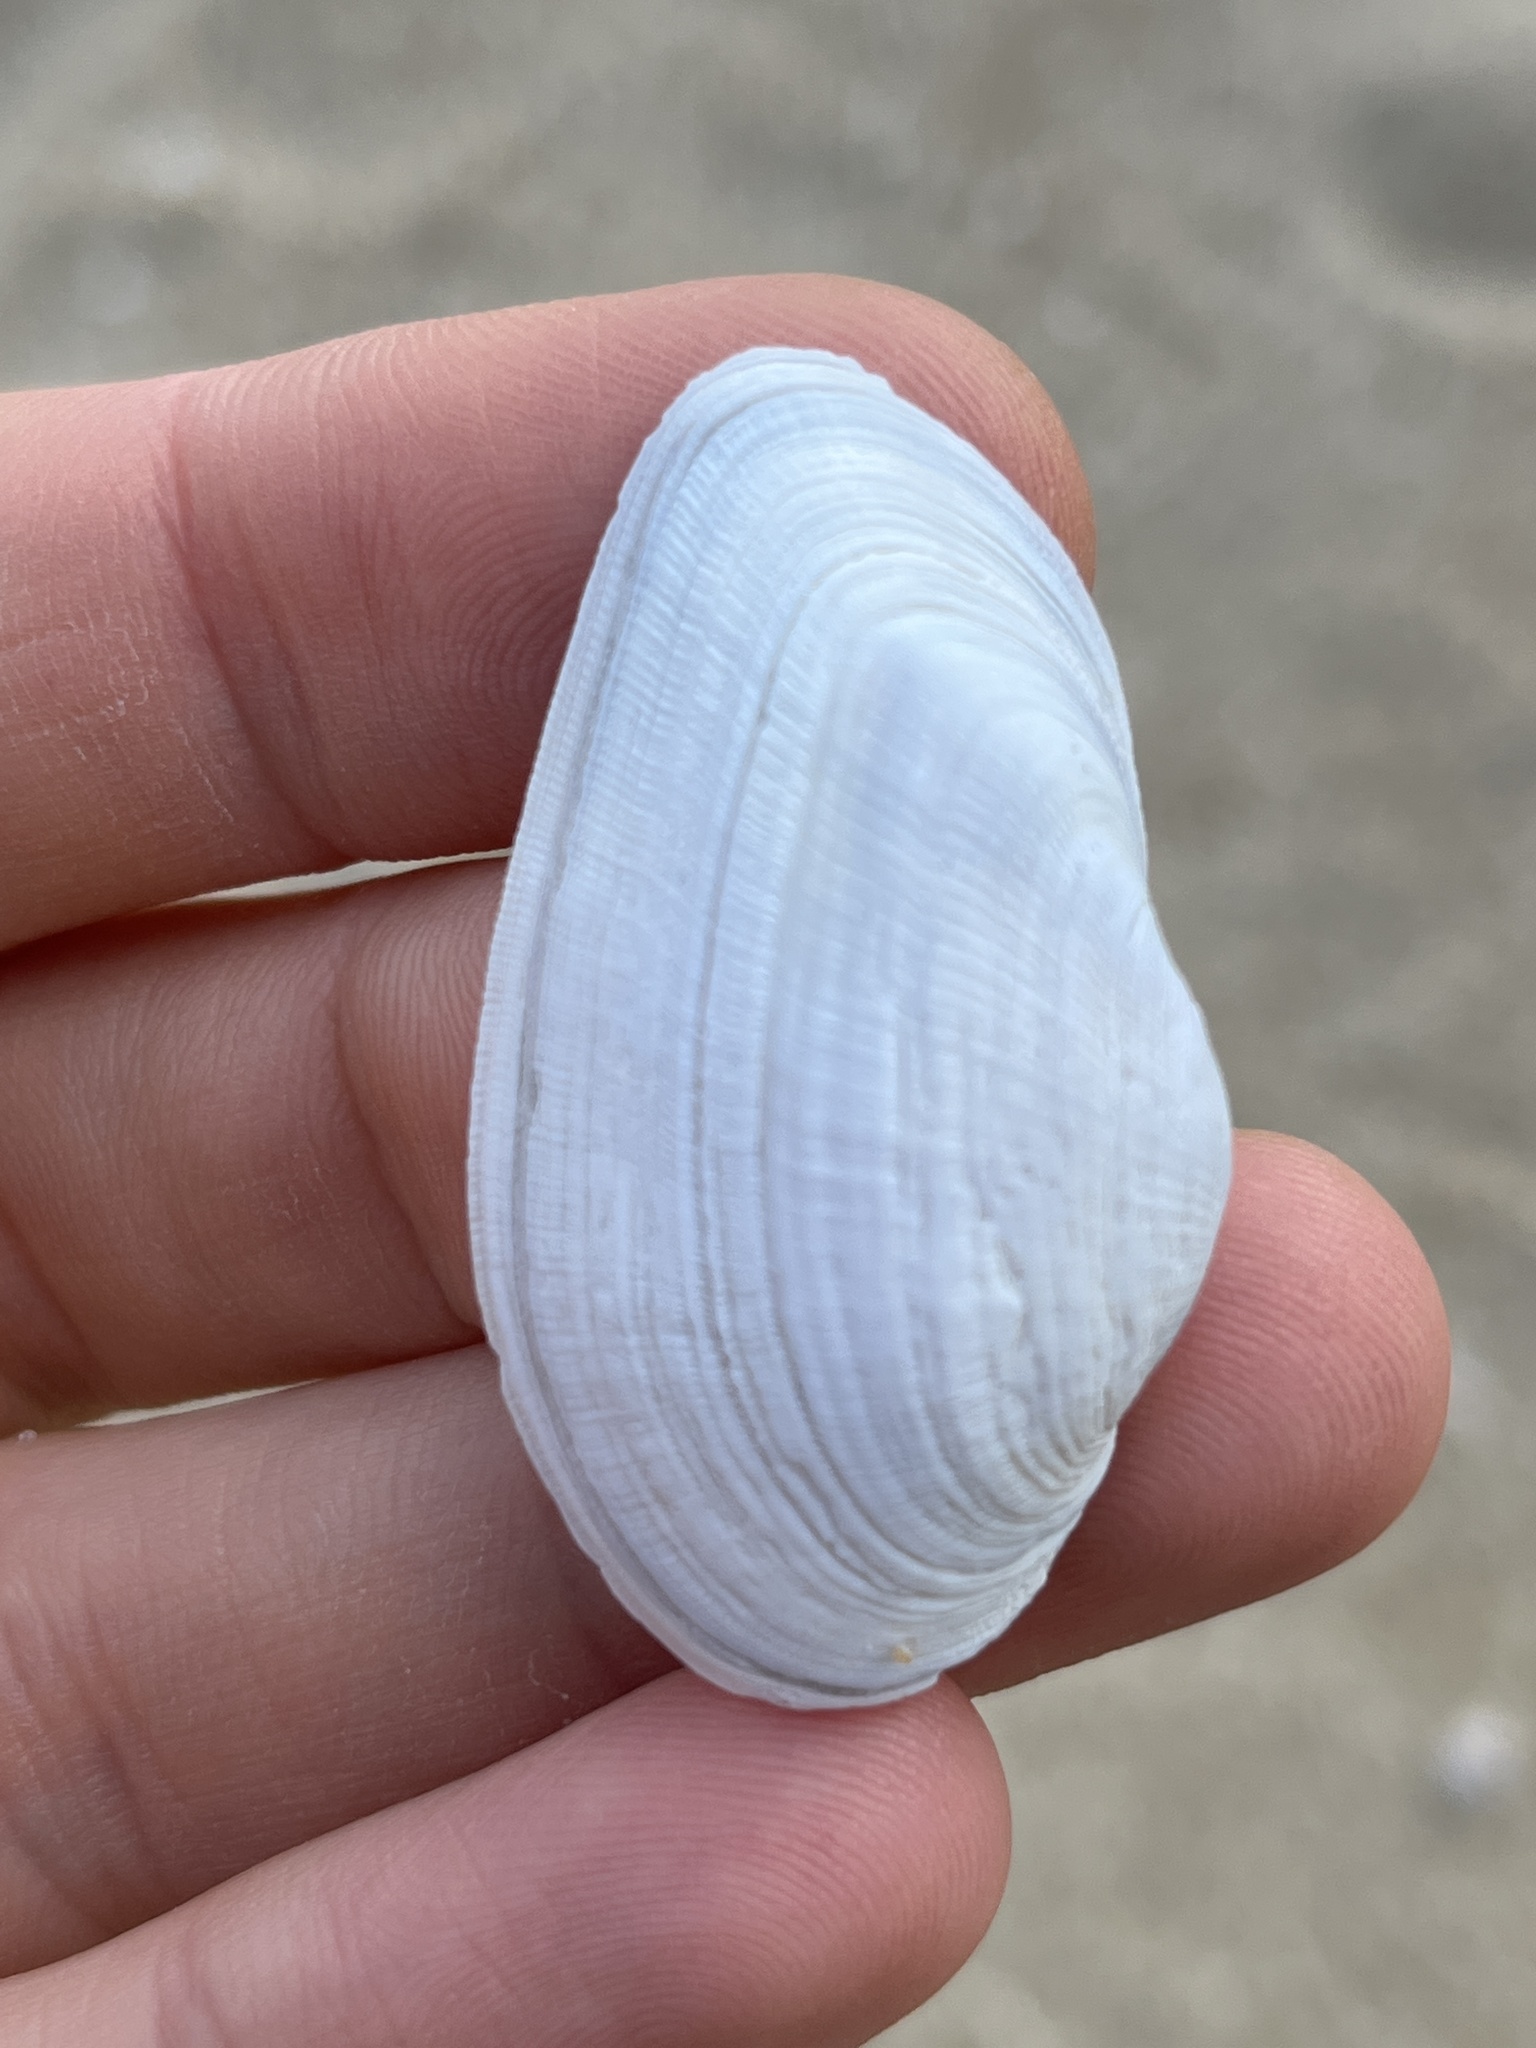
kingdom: Animalia
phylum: Mollusca
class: Bivalvia
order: Myida
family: Myidae
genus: Mya
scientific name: Mya arenaria
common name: Soft-shelled clam
